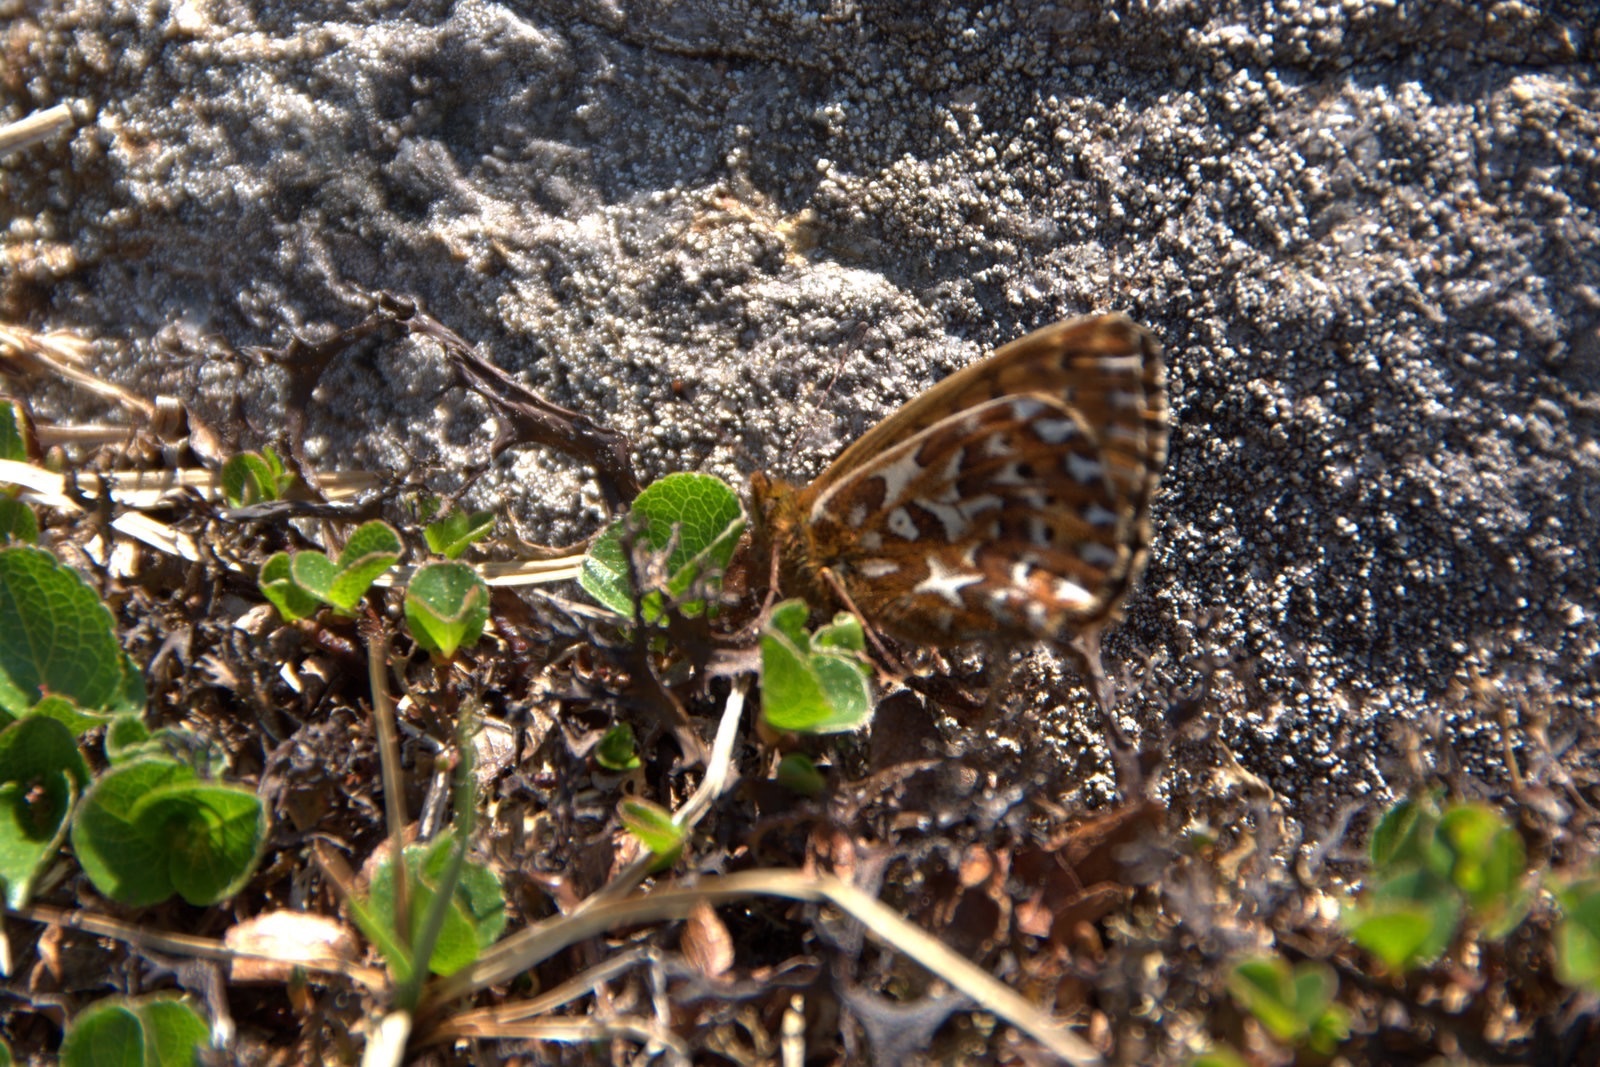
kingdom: Animalia
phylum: Arthropoda
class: Insecta
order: Lepidoptera
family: Nymphalidae
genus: Clossiana
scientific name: Clossiana polaris
